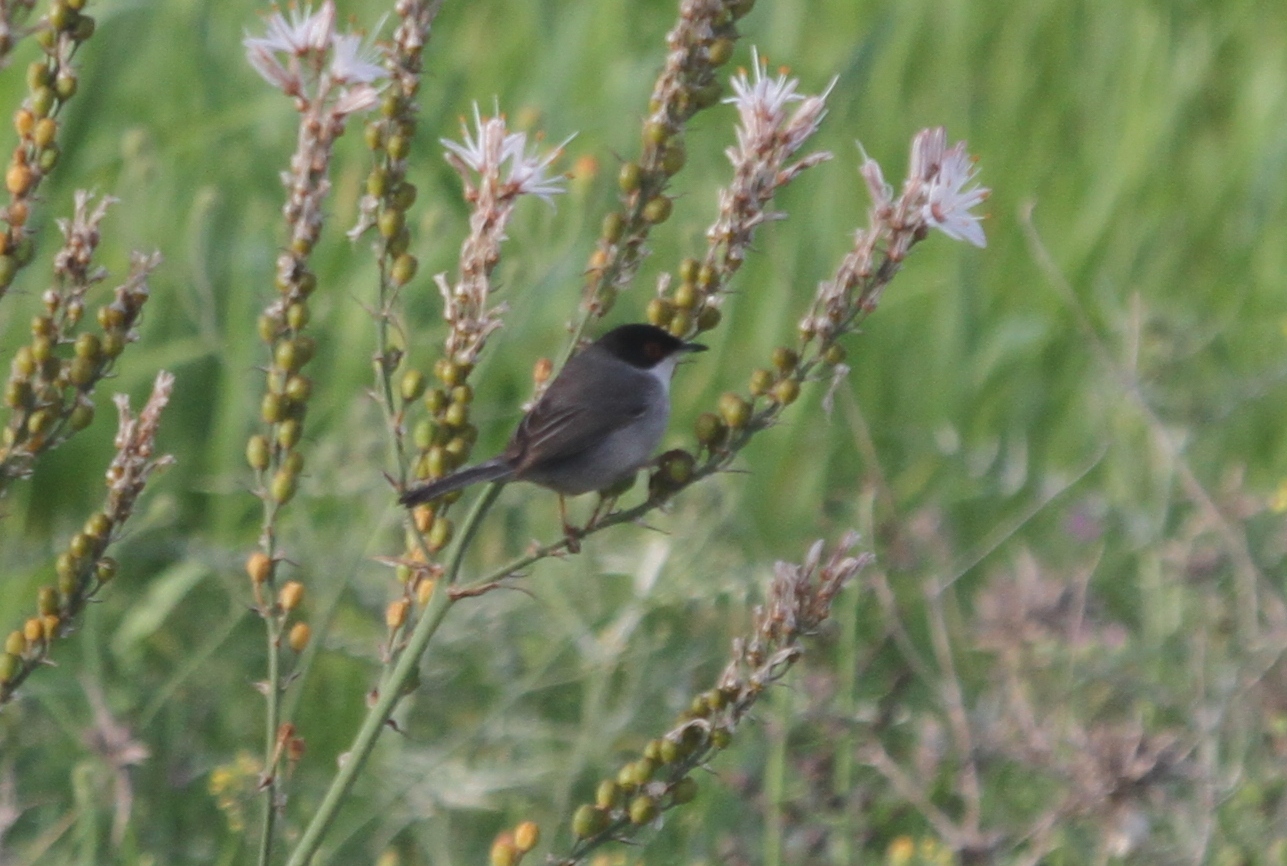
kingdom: Animalia
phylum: Chordata
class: Aves
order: Passeriformes
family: Sylviidae
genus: Curruca
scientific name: Curruca melanocephala
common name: Sardinian warbler
